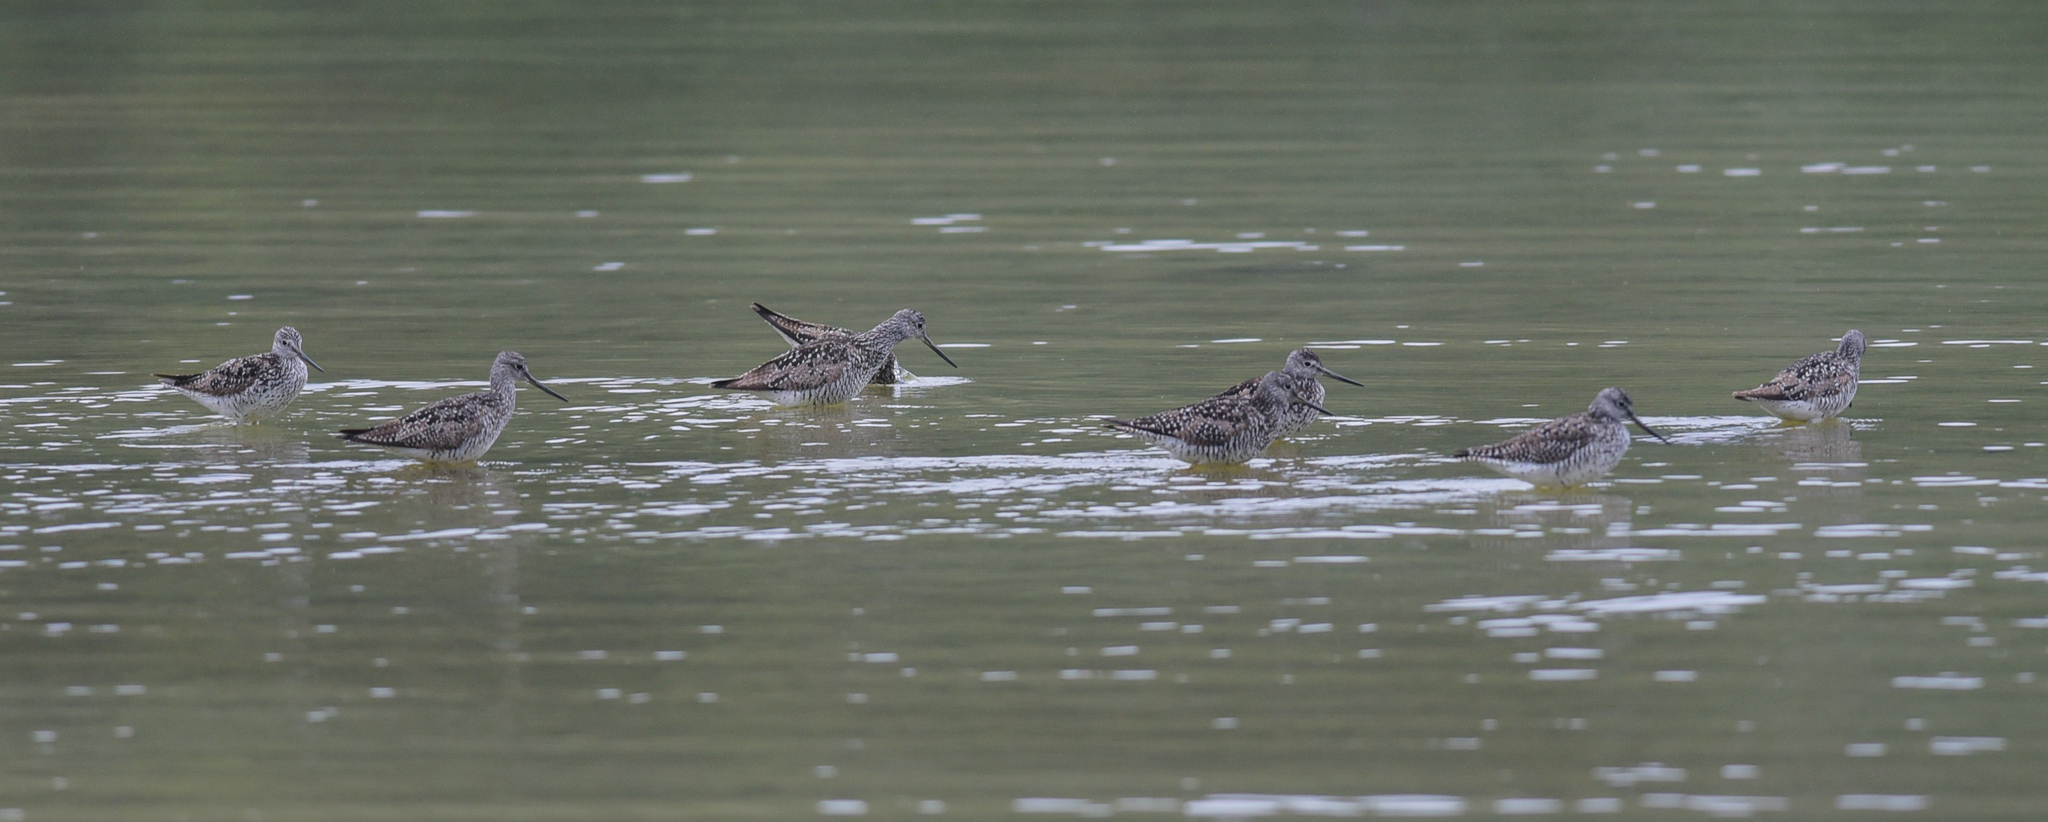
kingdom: Animalia
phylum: Chordata
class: Aves
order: Charadriiformes
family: Scolopacidae
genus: Tringa
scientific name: Tringa melanoleuca
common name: Greater yellowlegs
